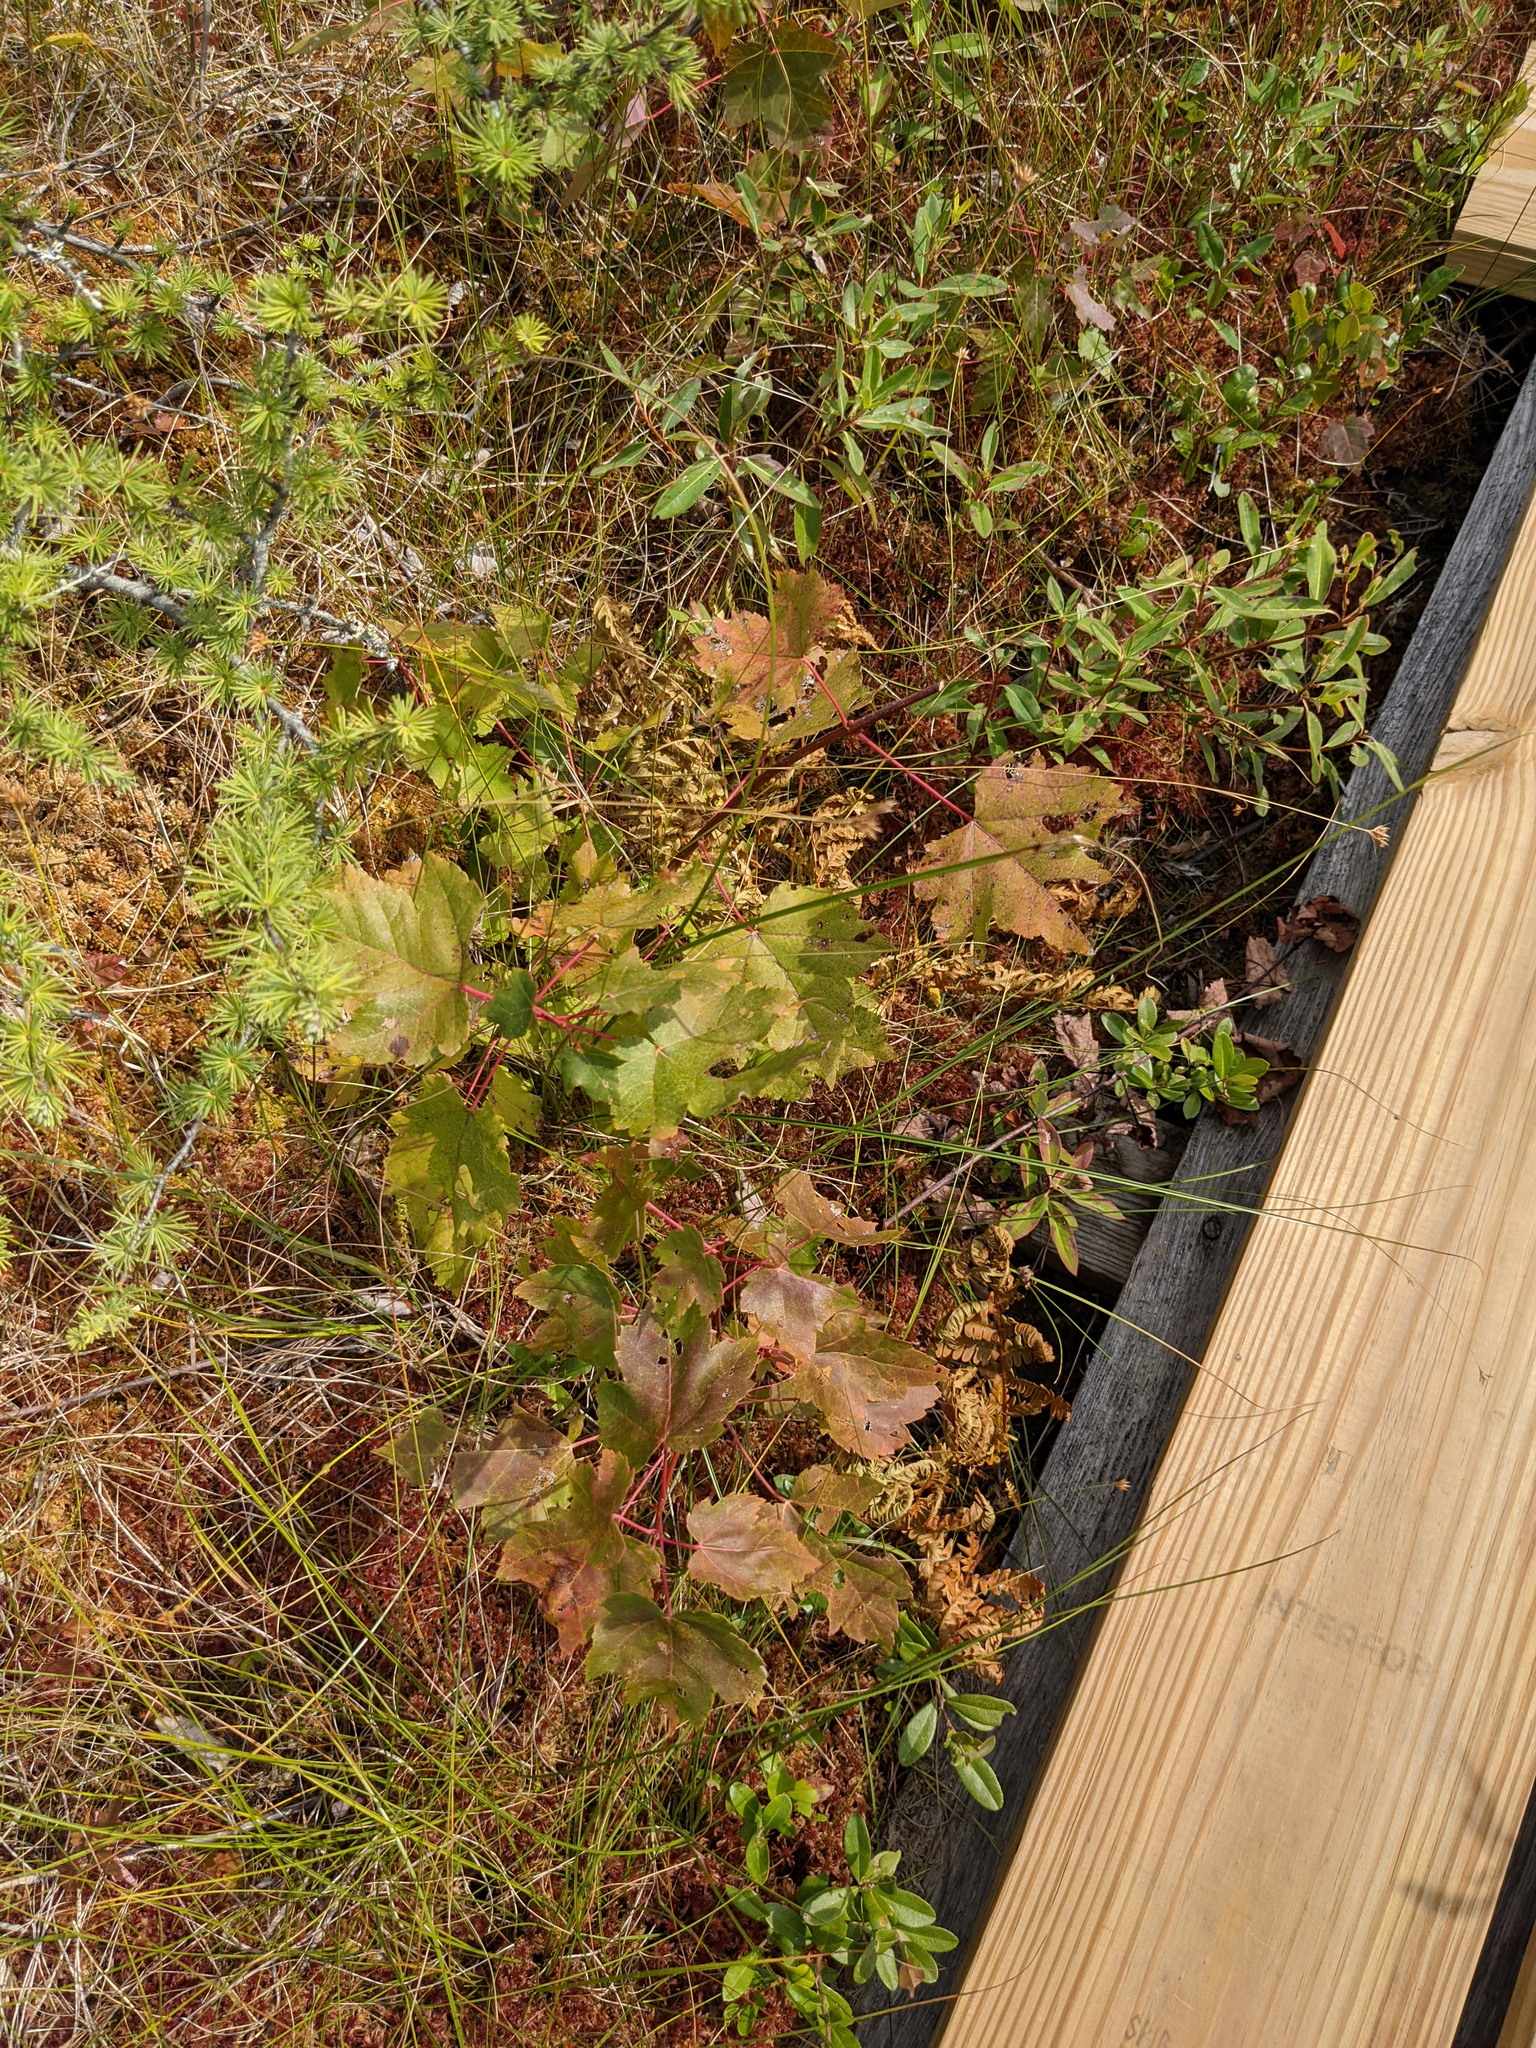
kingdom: Plantae
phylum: Tracheophyta
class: Magnoliopsida
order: Sapindales
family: Sapindaceae
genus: Acer
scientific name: Acer rubrum
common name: Red maple
